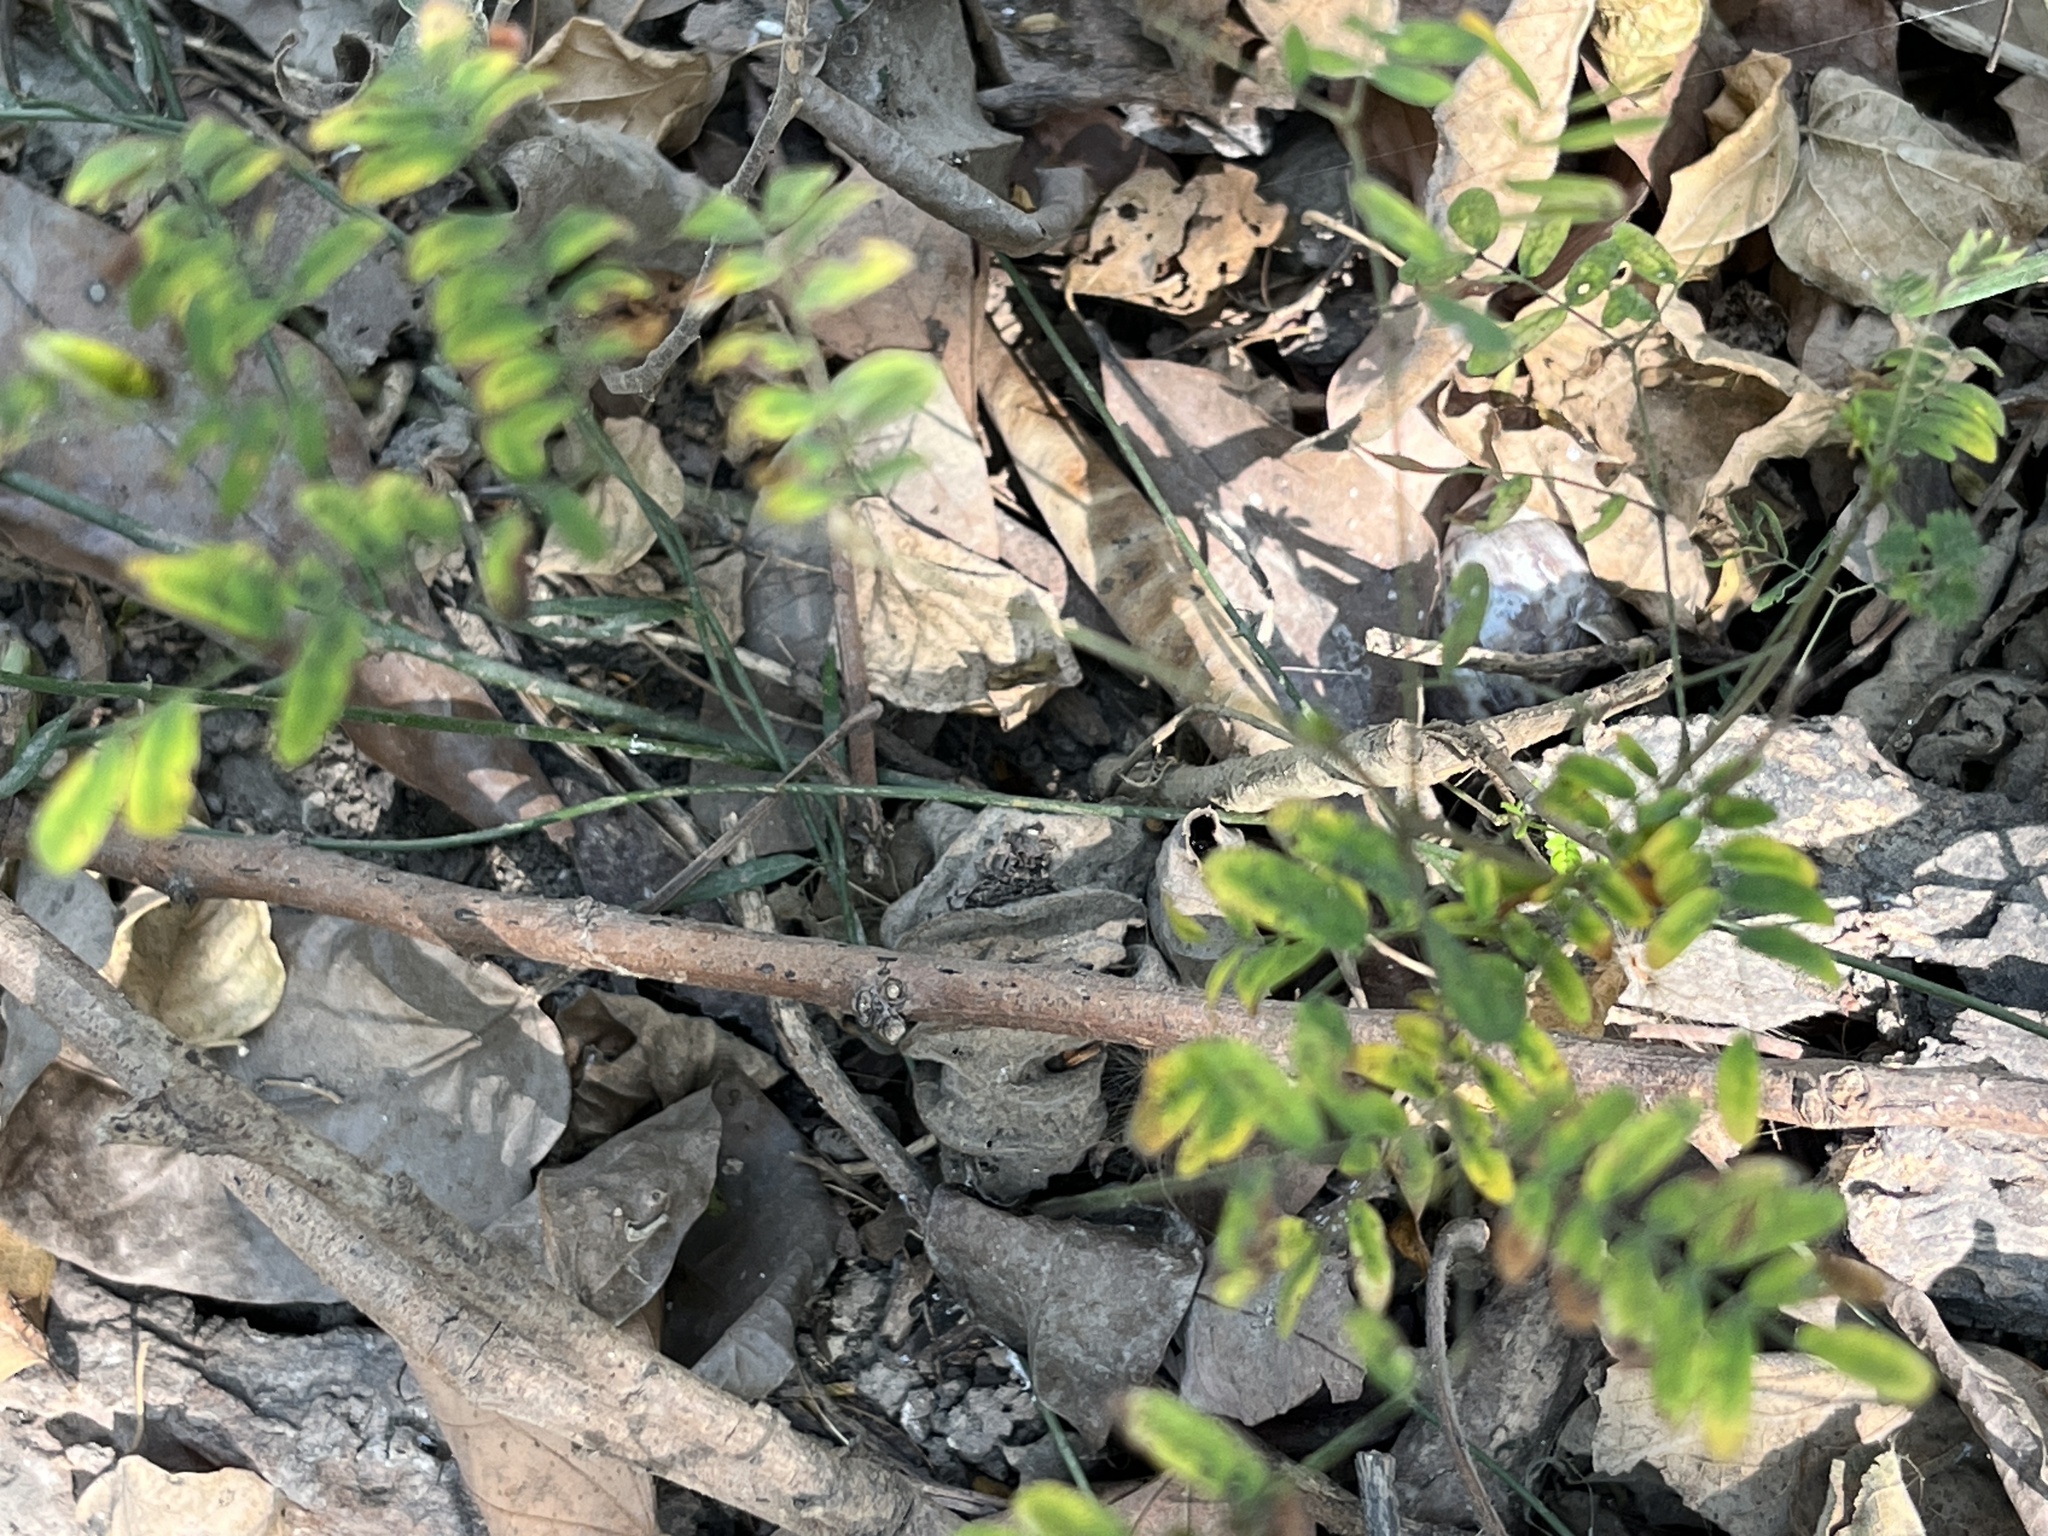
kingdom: Plantae
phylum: Tracheophyta
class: Magnoliopsida
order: Fabales
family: Fabaceae
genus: Leucaena
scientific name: Leucaena leucocephala
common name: White leadtree
